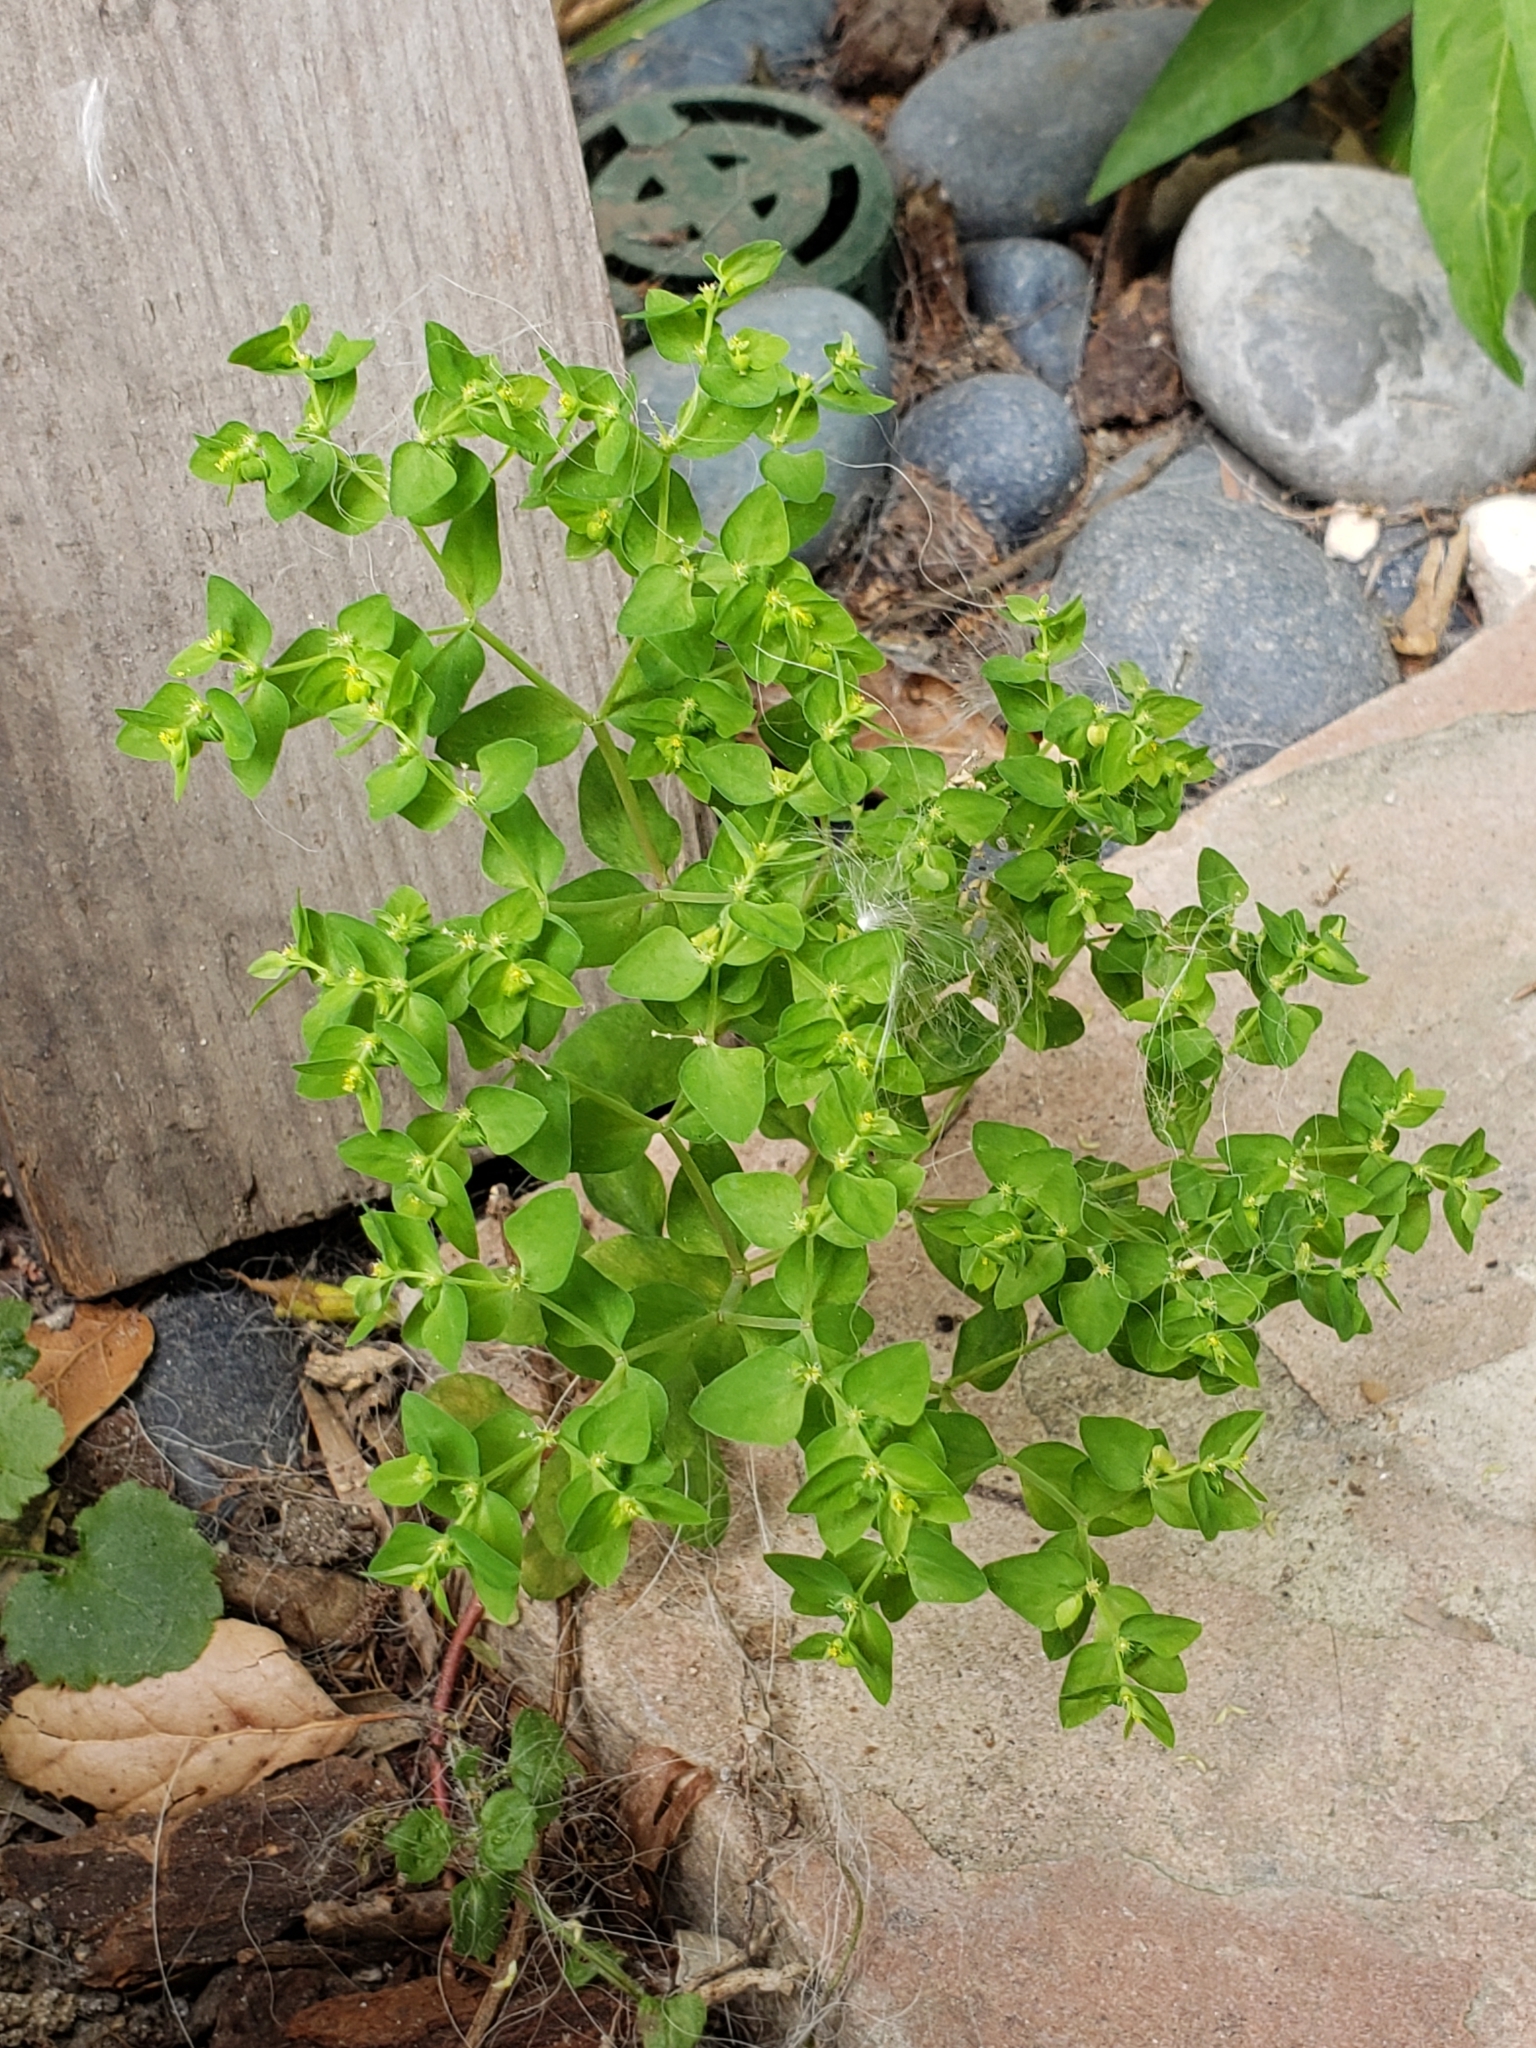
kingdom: Plantae
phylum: Tracheophyta
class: Magnoliopsida
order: Malpighiales
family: Euphorbiaceae
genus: Euphorbia
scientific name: Euphorbia peplus
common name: Petty spurge
